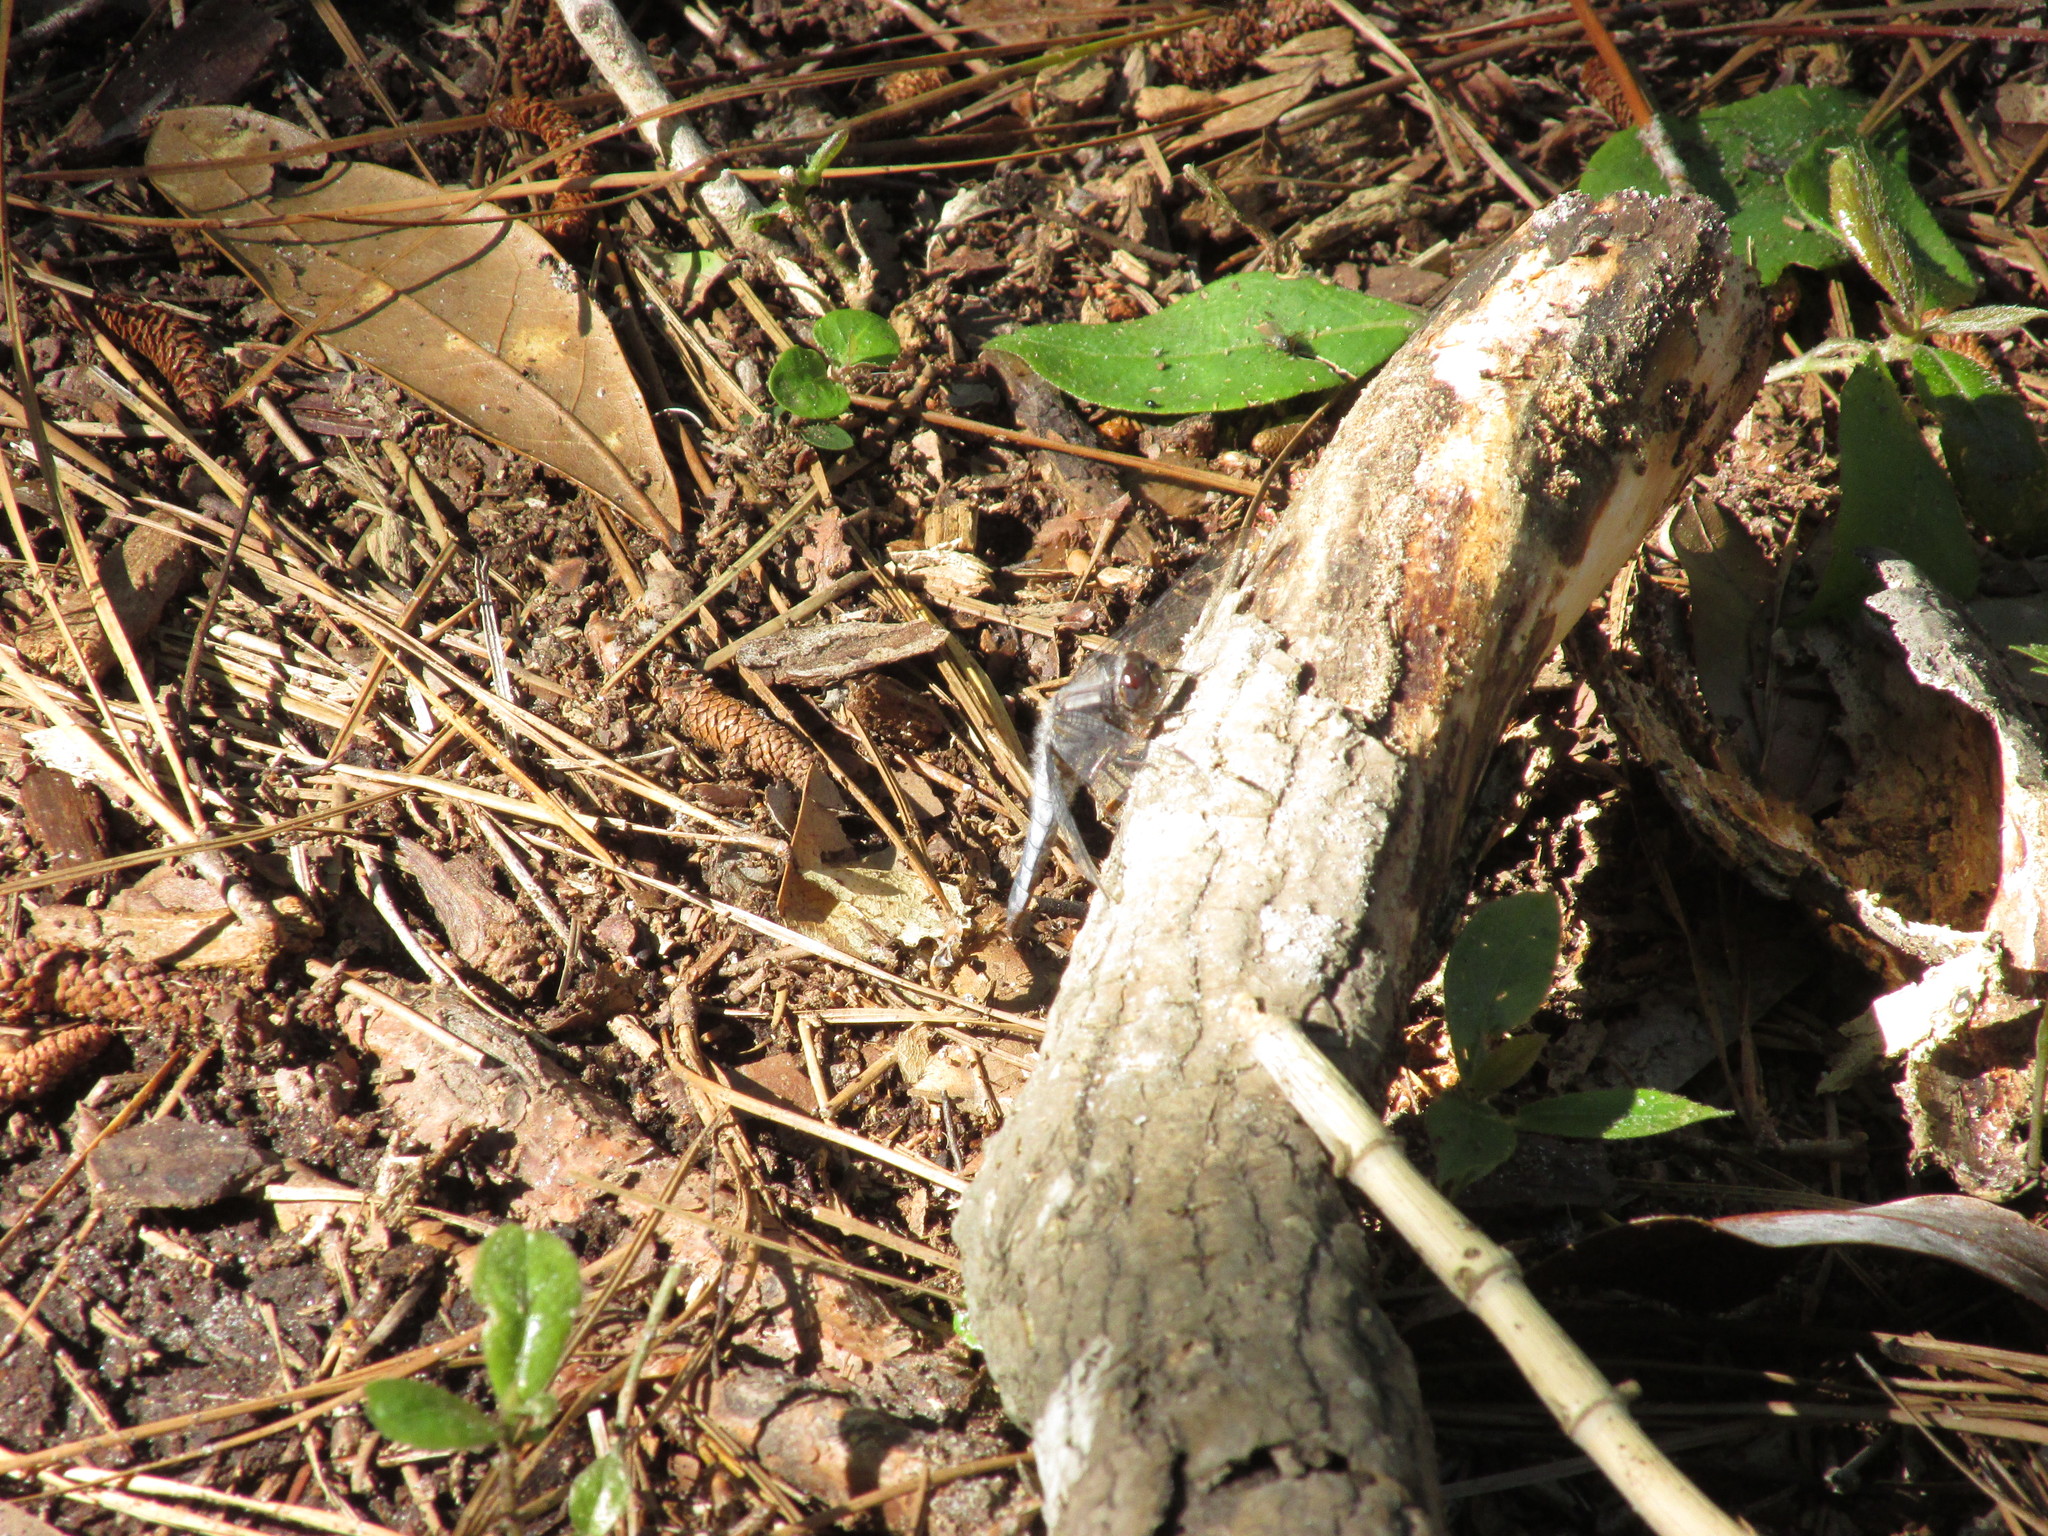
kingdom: Animalia
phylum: Arthropoda
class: Insecta
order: Odonata
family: Libellulidae
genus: Ladona
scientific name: Ladona deplanata
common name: Blue corporal
